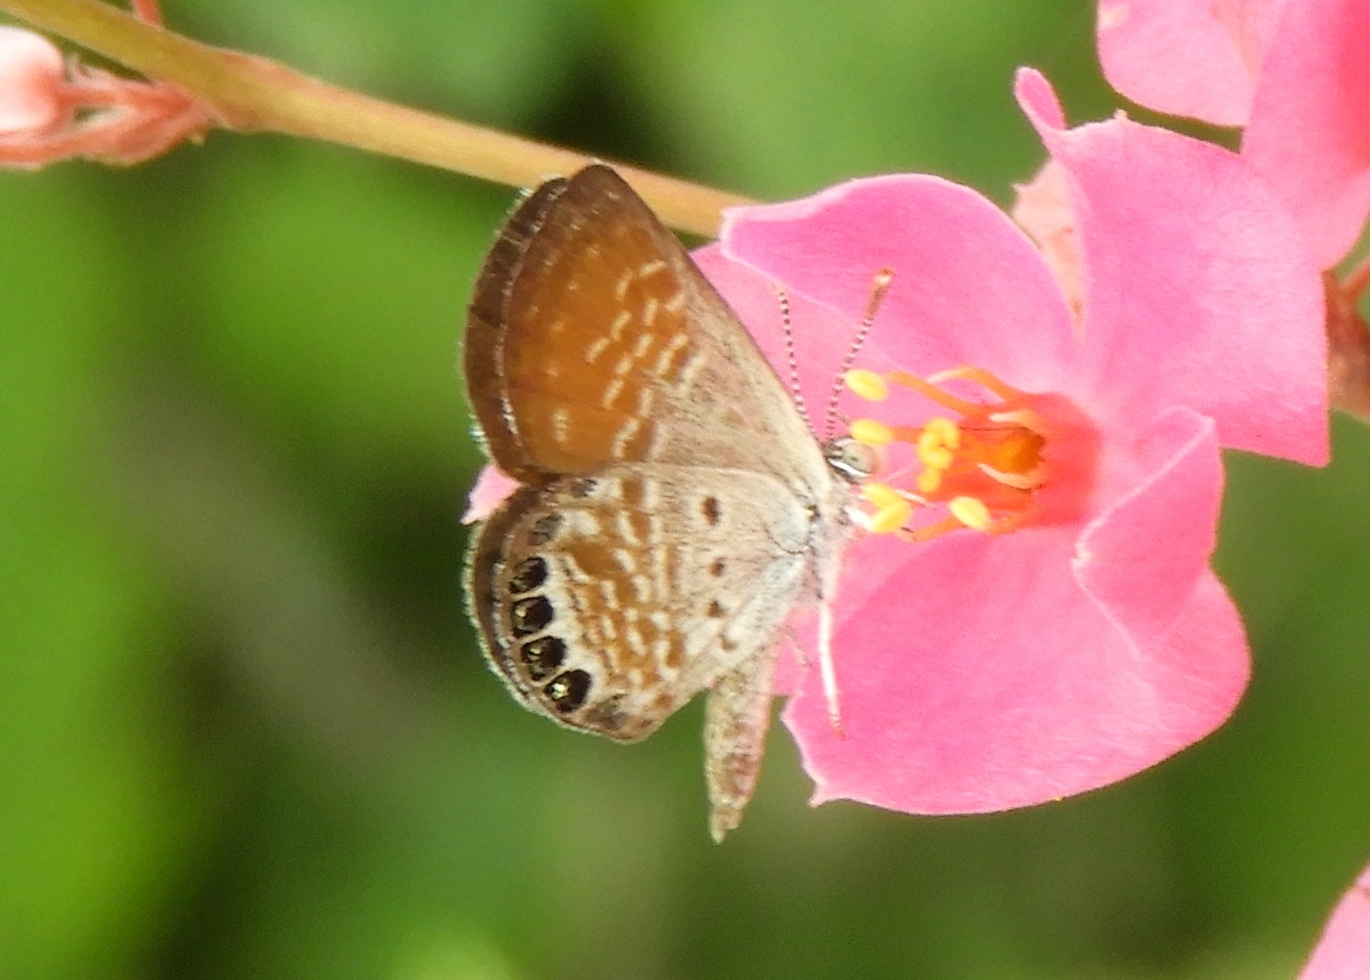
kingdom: Animalia
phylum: Arthropoda
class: Insecta
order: Lepidoptera
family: Lycaenidae
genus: Brephidium
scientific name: Brephidium exilis
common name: Pygmy blue
